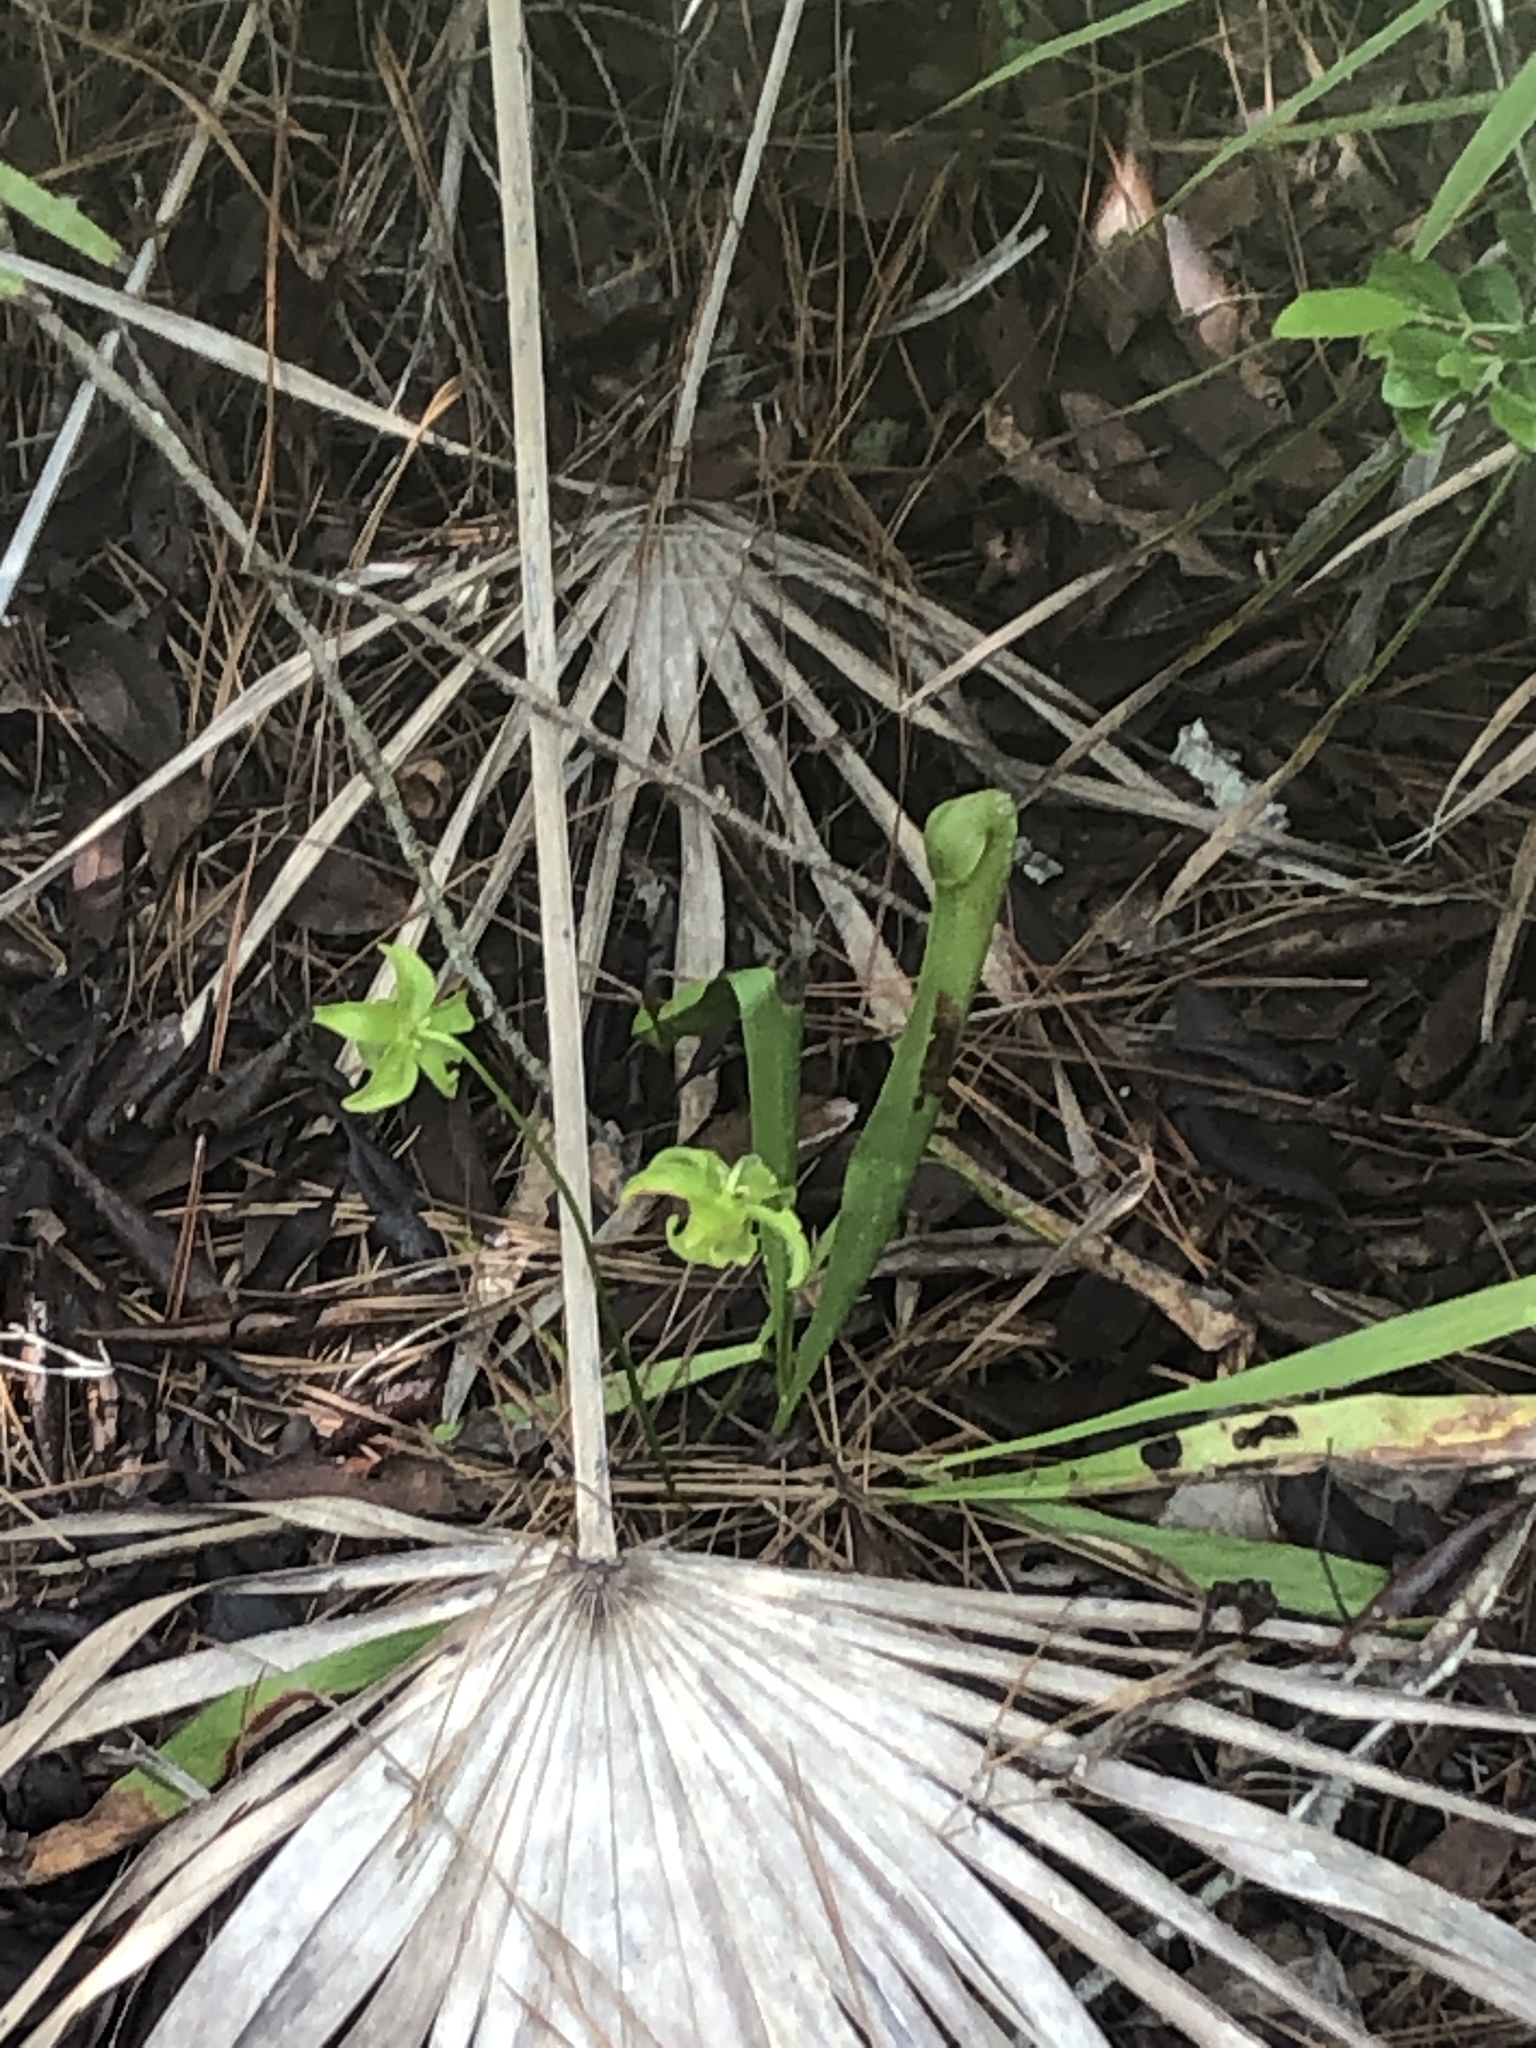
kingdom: Plantae
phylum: Tracheophyta
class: Magnoliopsida
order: Ericales
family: Sarraceniaceae
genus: Sarracenia
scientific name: Sarracenia minor
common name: Rainhat-trumpet
